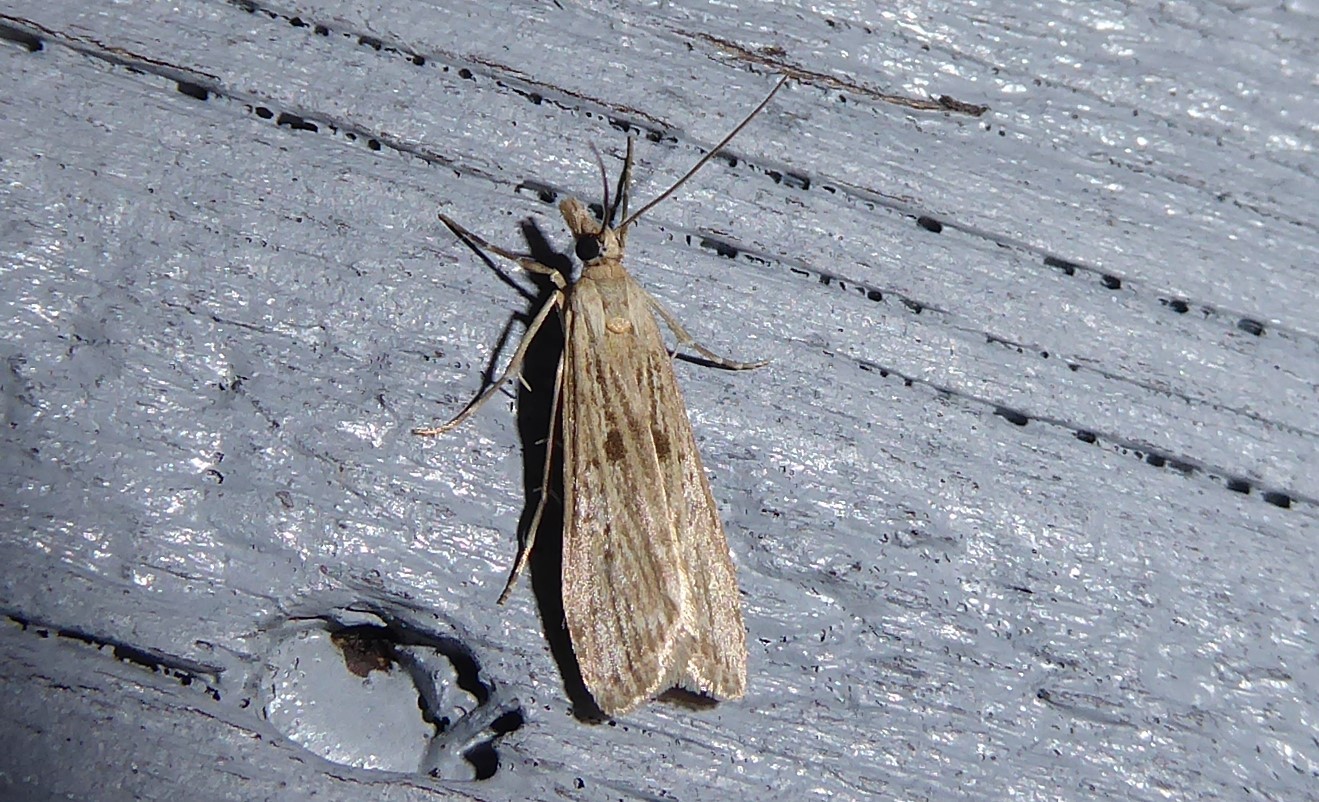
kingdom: Animalia
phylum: Arthropoda
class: Insecta
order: Lepidoptera
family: Crambidae
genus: Eudonia
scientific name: Eudonia atmogramma
